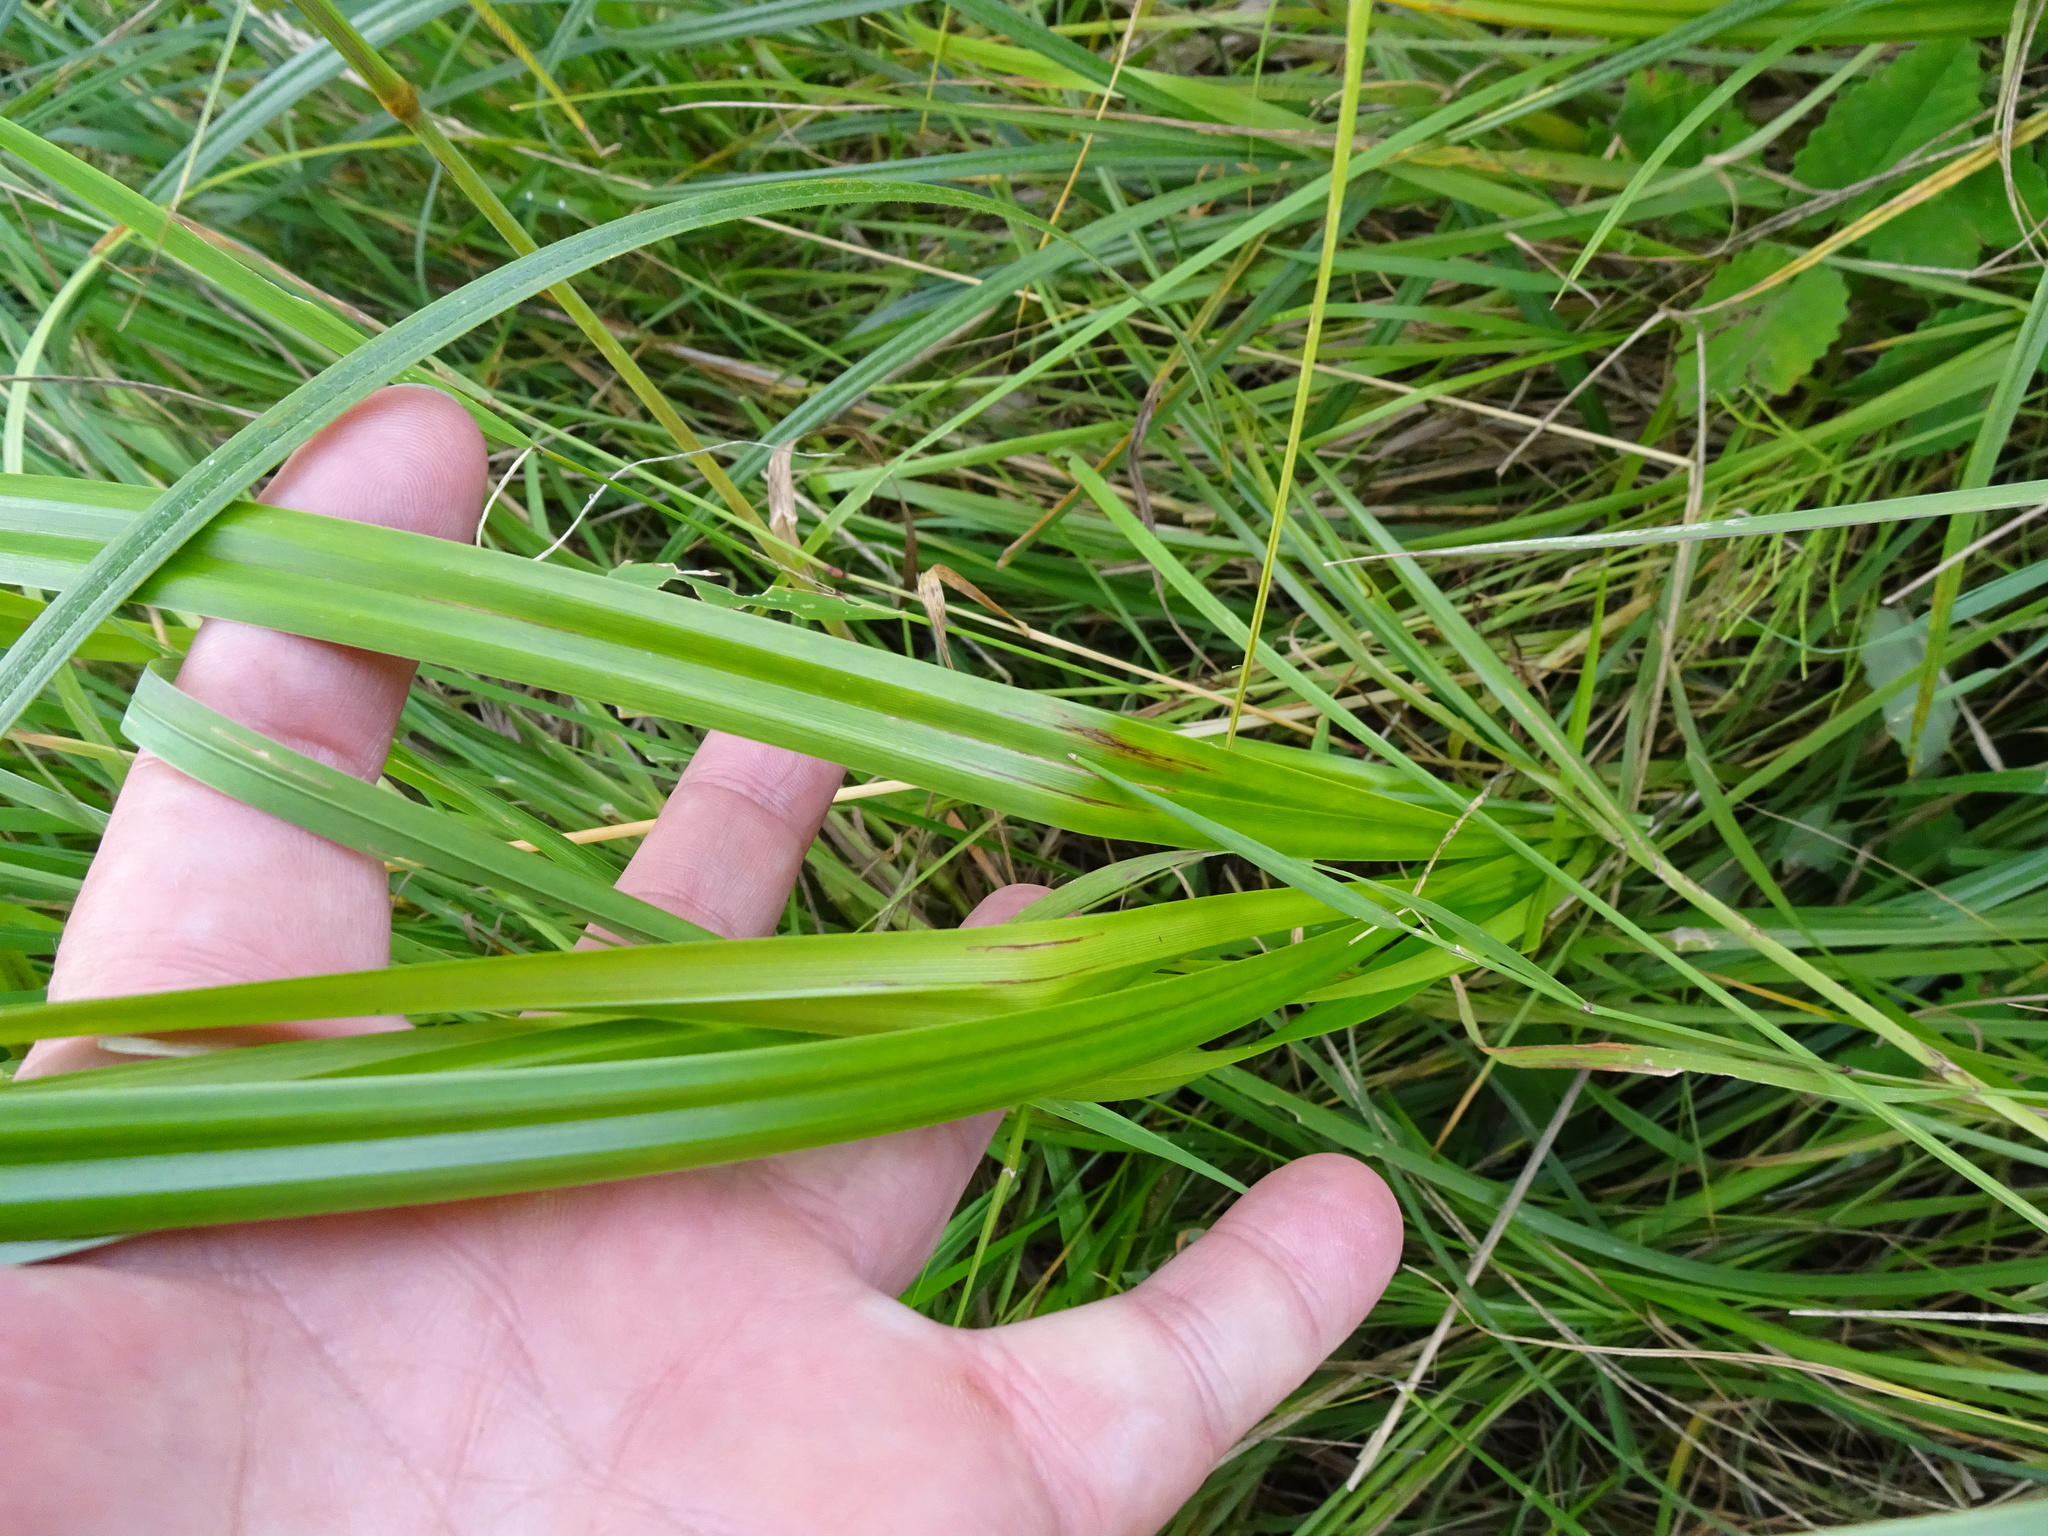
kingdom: Plantae
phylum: Tracheophyta
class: Liliopsida
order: Poales
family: Cyperaceae
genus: Scirpus
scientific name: Scirpus sylvaticus
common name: Wood club-rush
